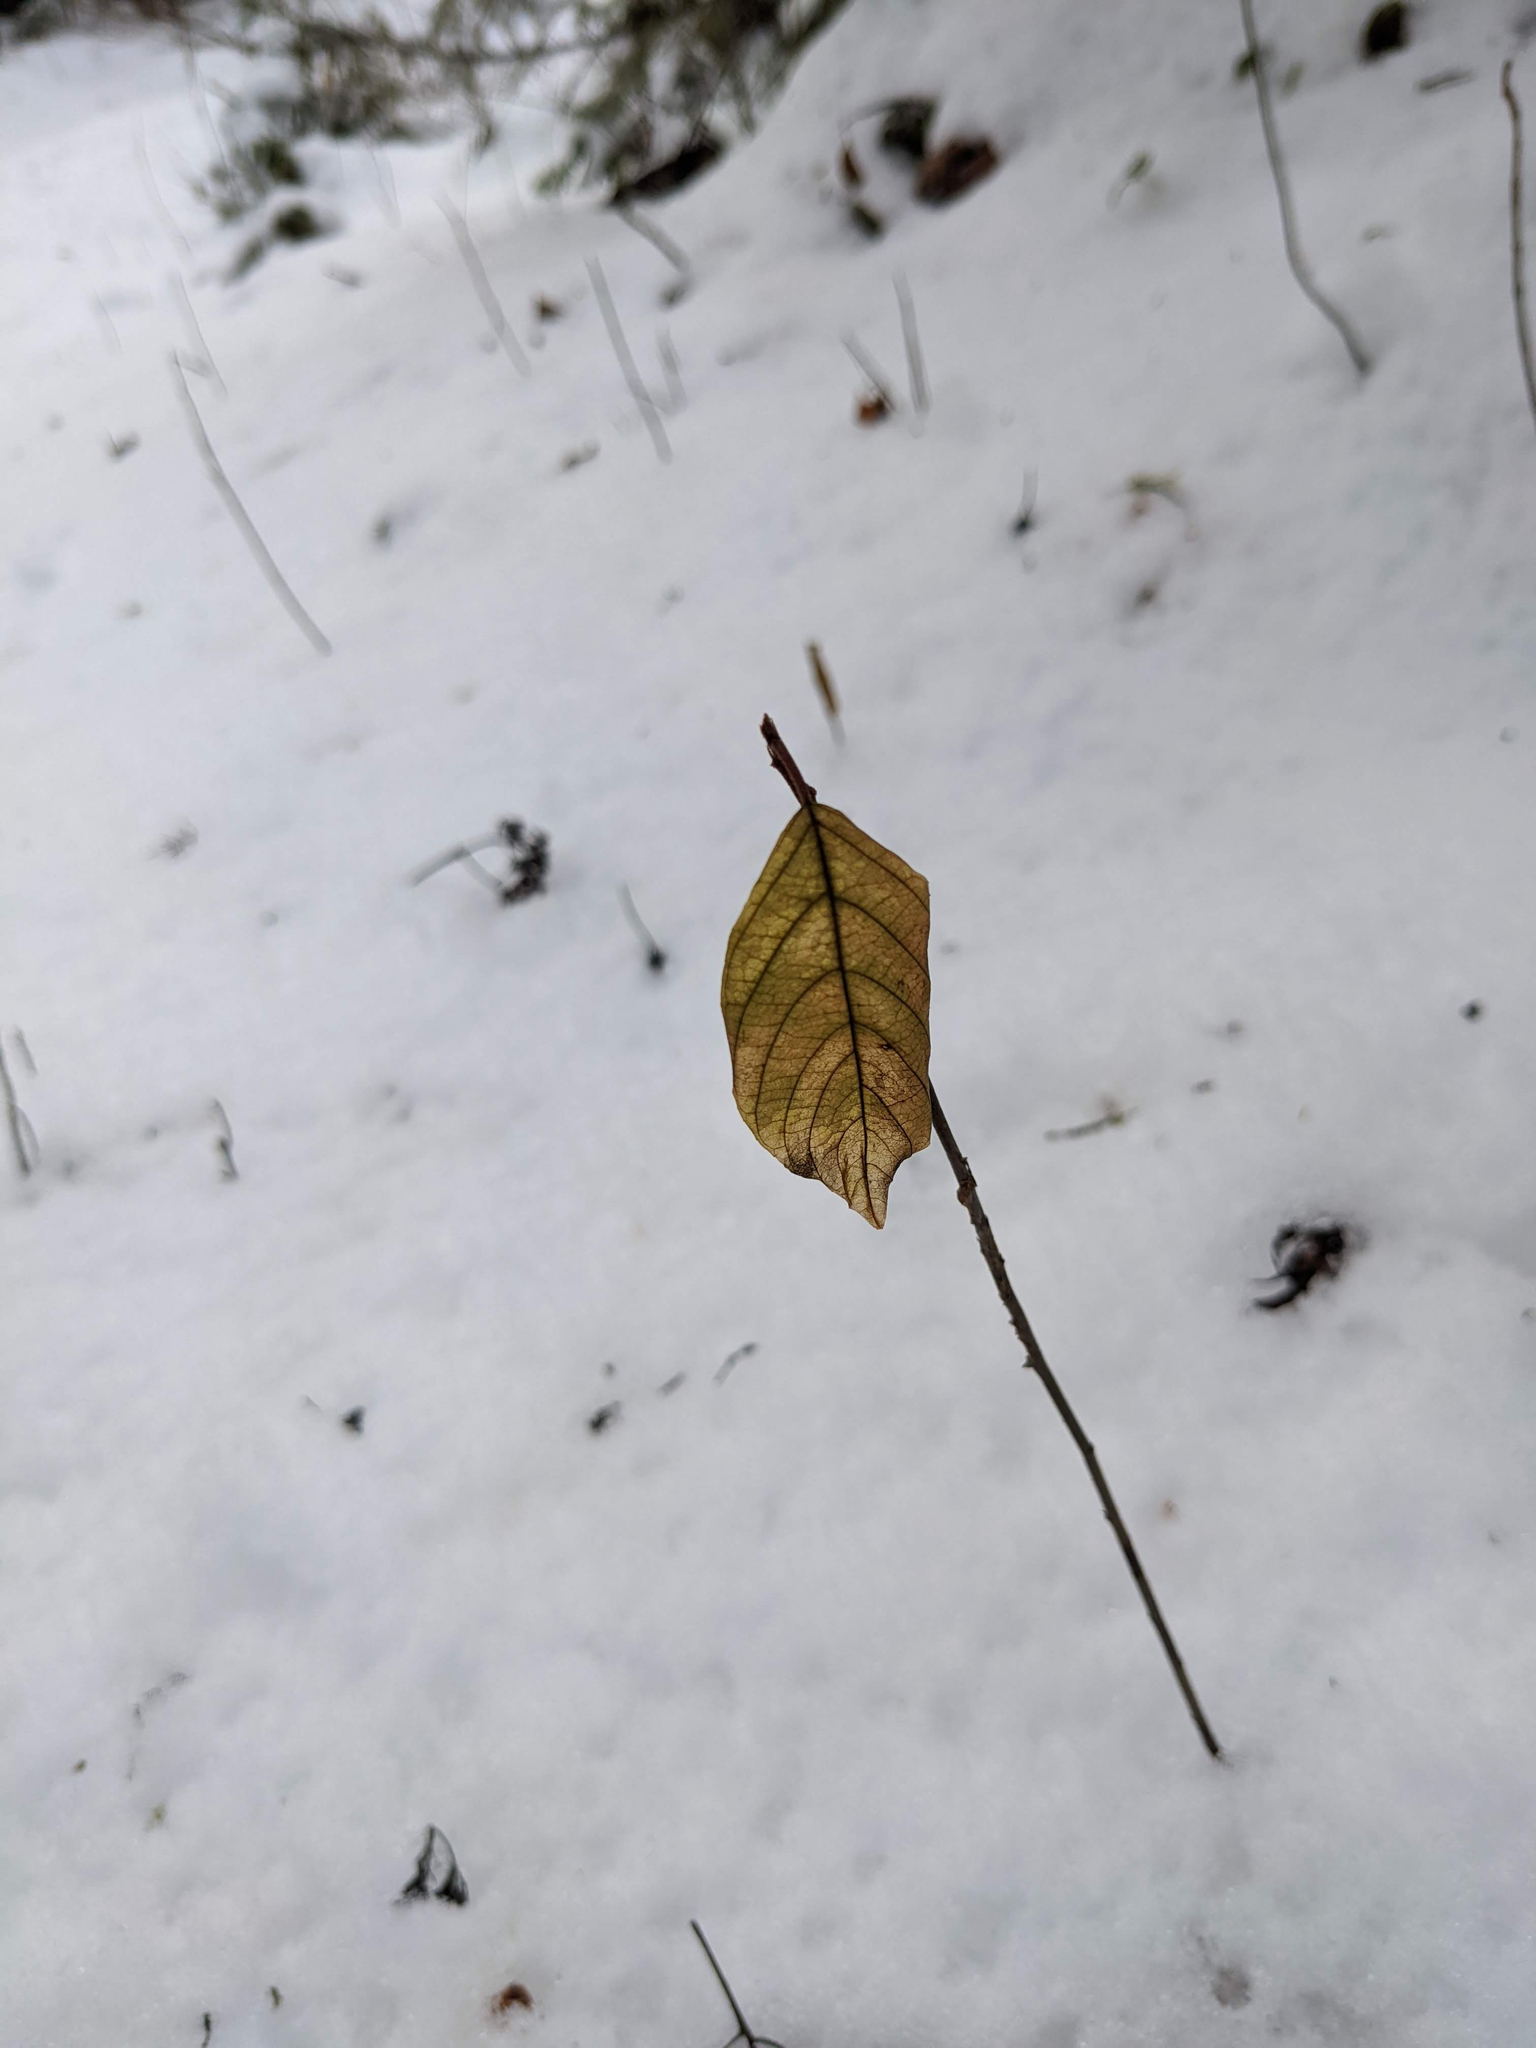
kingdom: Plantae
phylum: Tracheophyta
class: Magnoliopsida
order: Rosales
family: Rhamnaceae
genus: Frangula
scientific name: Frangula alnus
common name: Alder buckthorn
